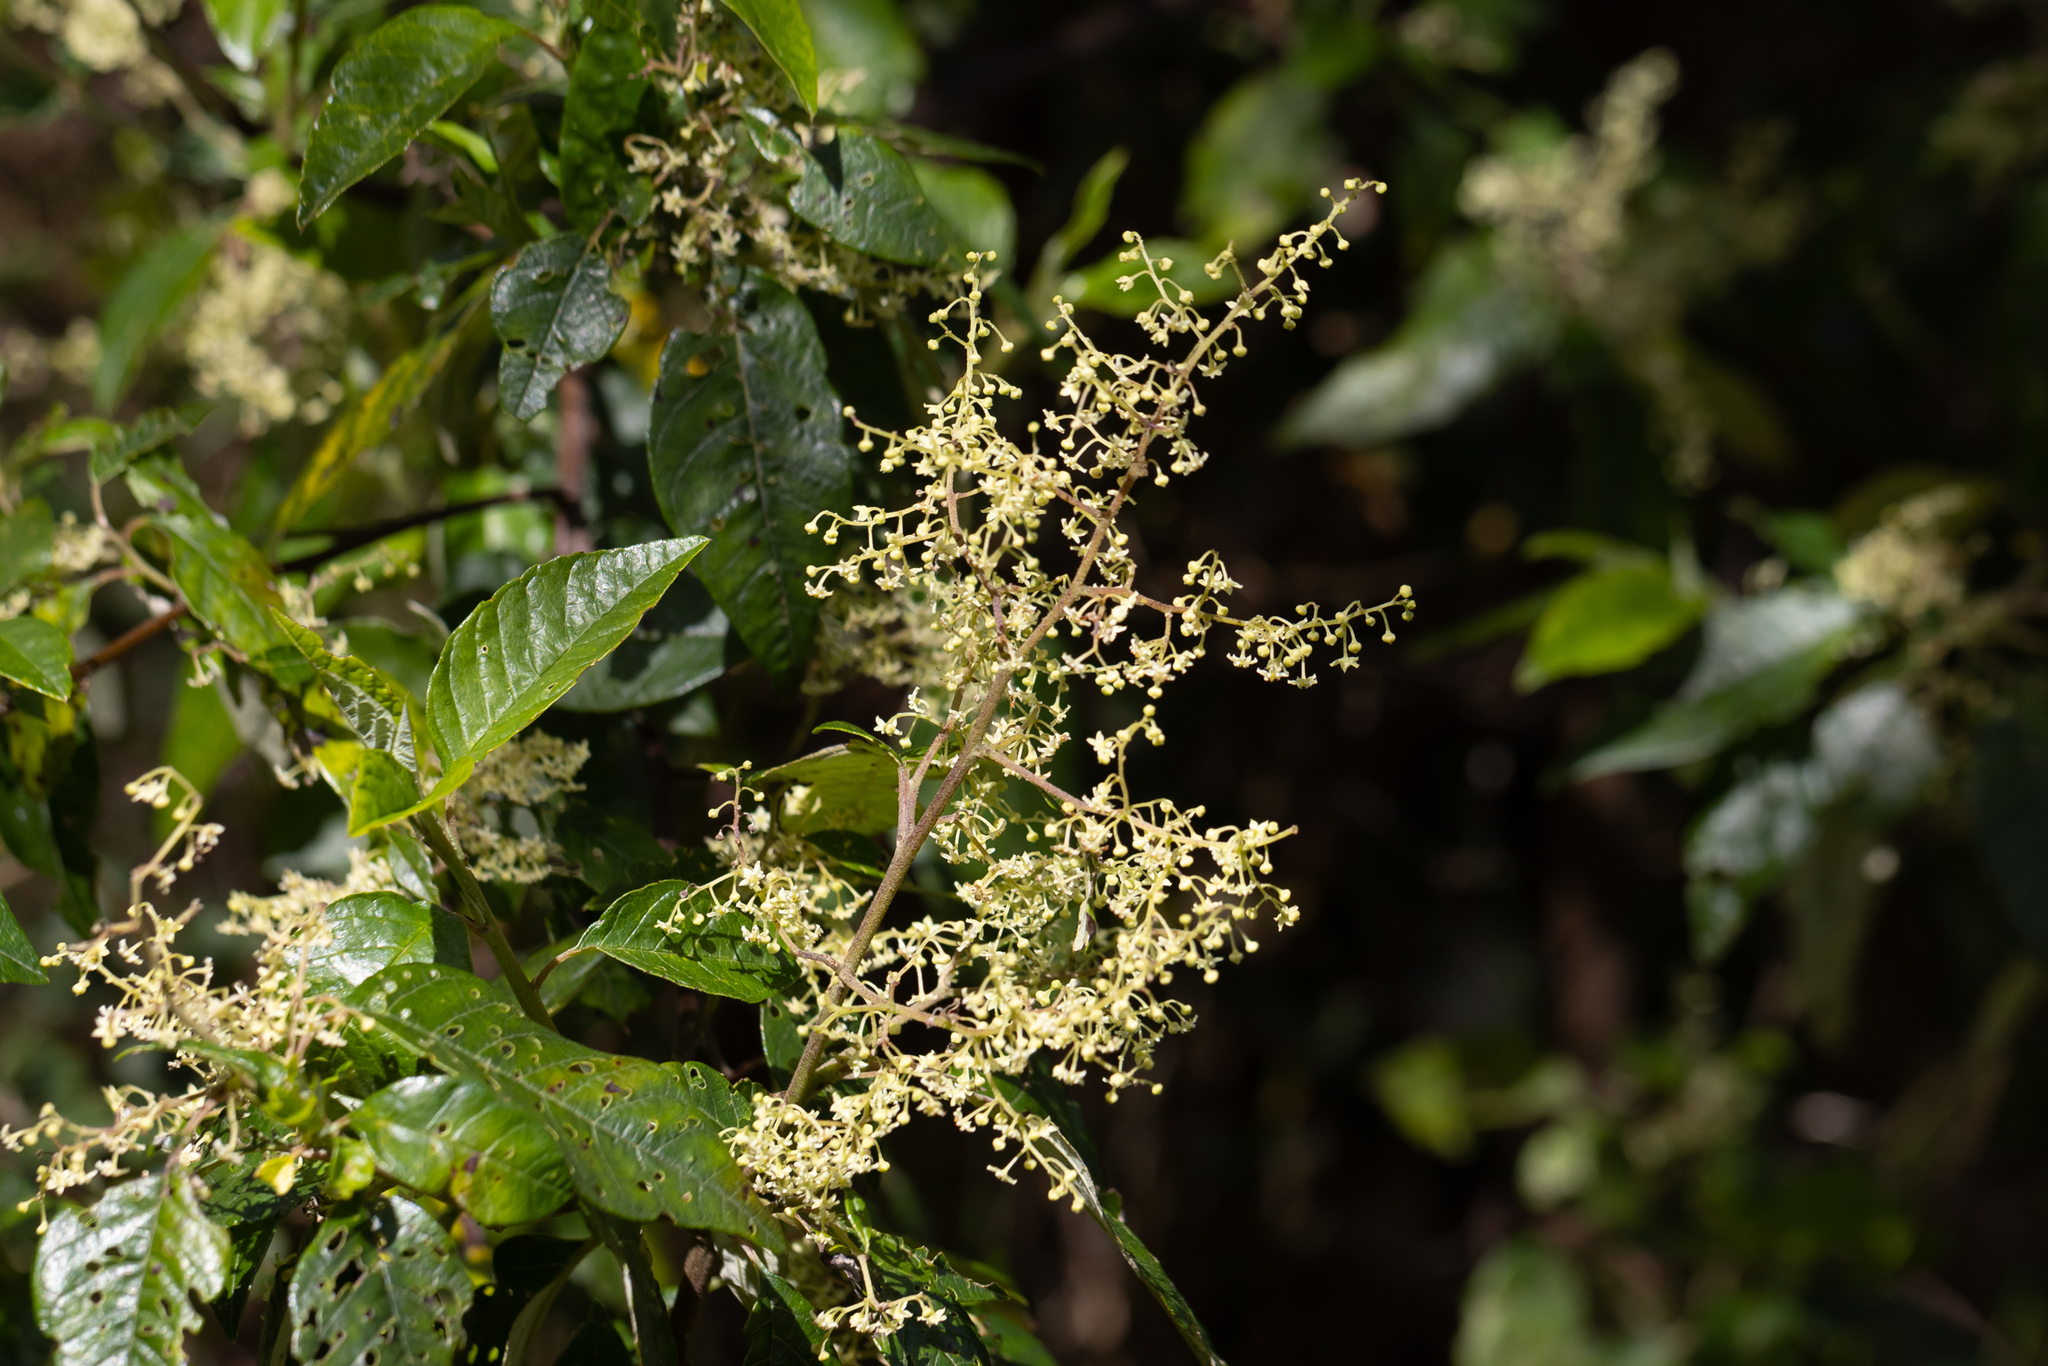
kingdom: Plantae
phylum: Tracheophyta
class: Magnoliopsida
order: Rosales
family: Rhamnaceae
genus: Trymalium
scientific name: Trymalium odoratissimum
